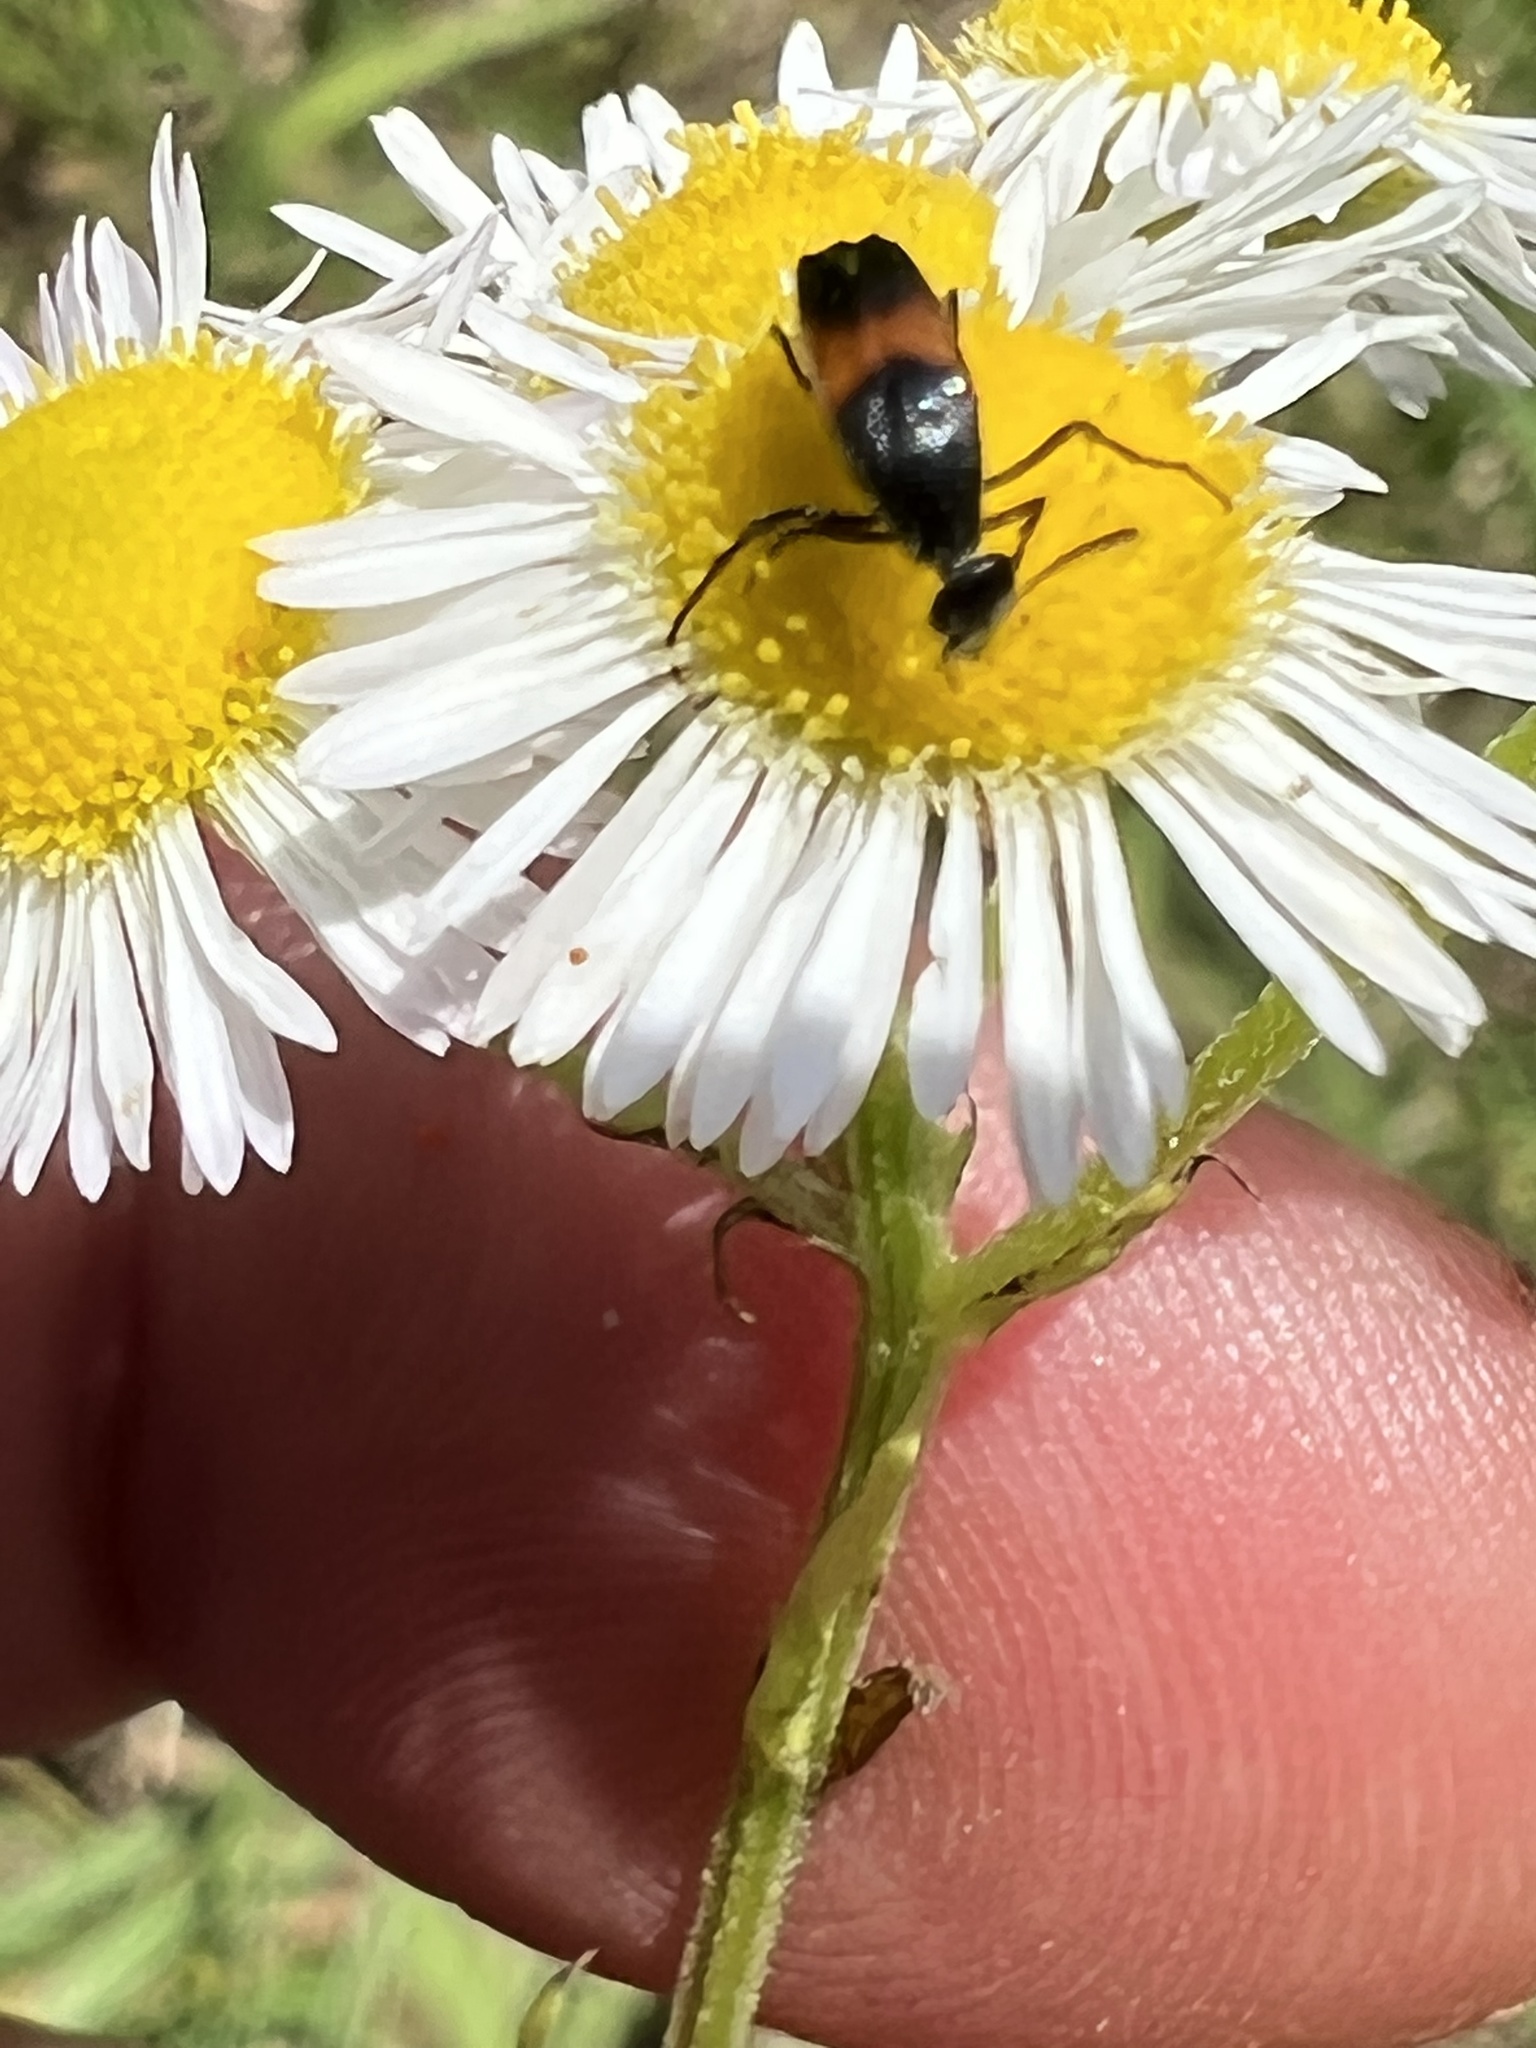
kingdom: Animalia
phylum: Arthropoda
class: Insecta
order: Coleoptera
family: Ripiphoridae
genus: Macrosiagon
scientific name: Macrosiagon cruentum
